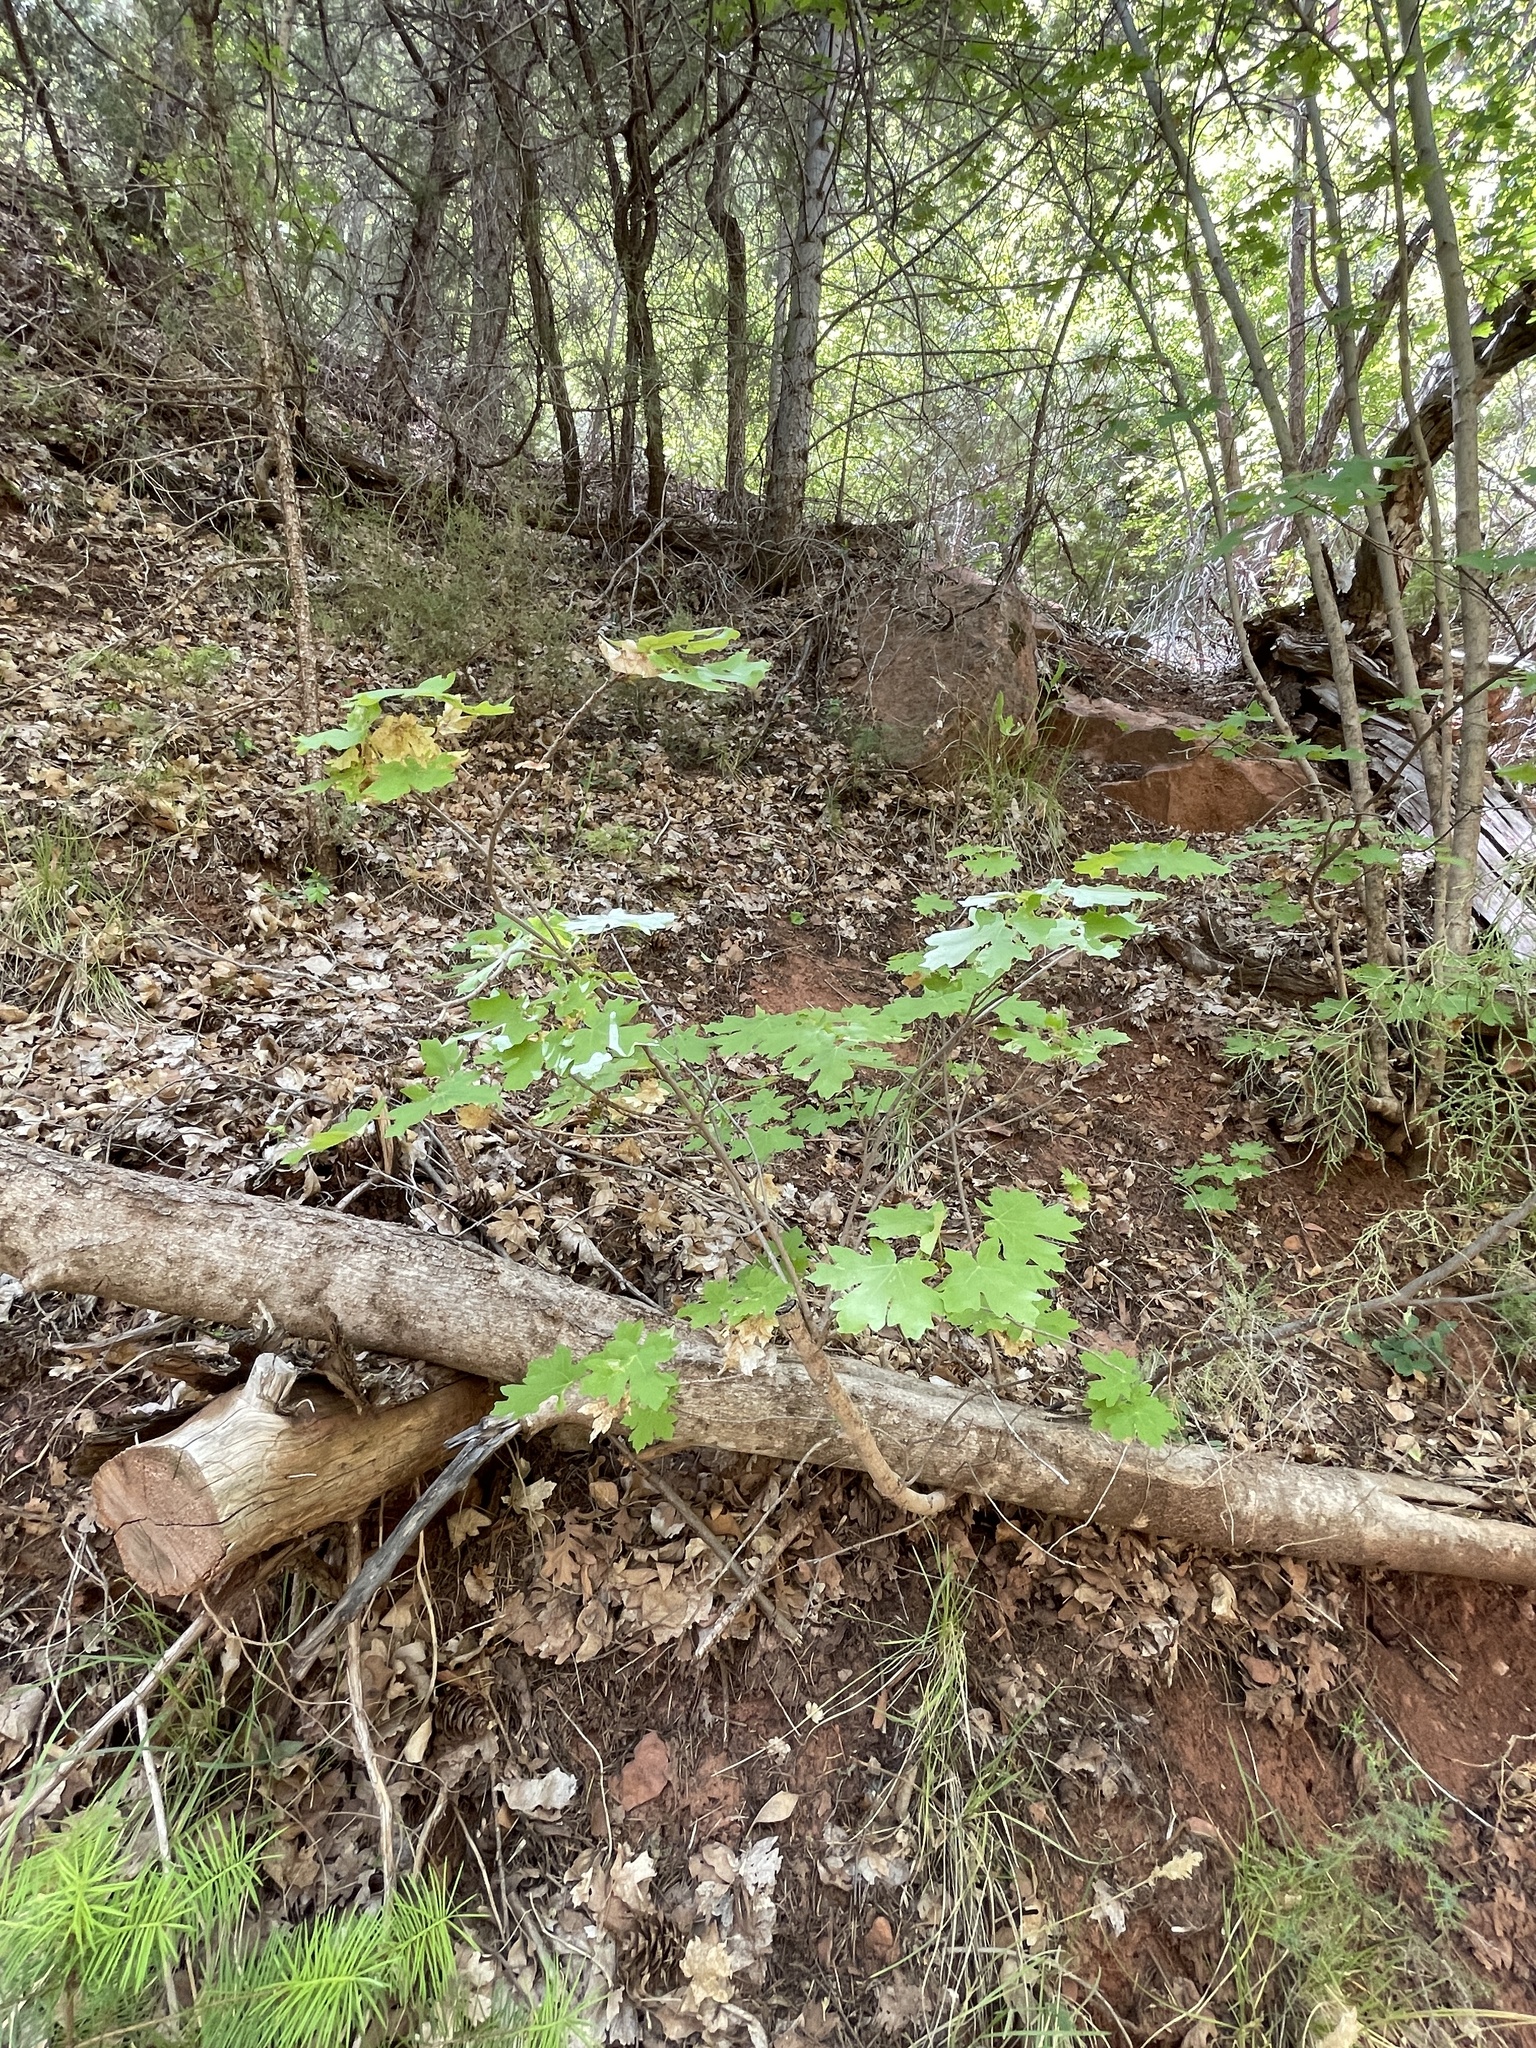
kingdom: Plantae
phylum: Tracheophyta
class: Magnoliopsida
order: Sapindales
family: Sapindaceae
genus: Acer
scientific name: Acer grandidentatum
